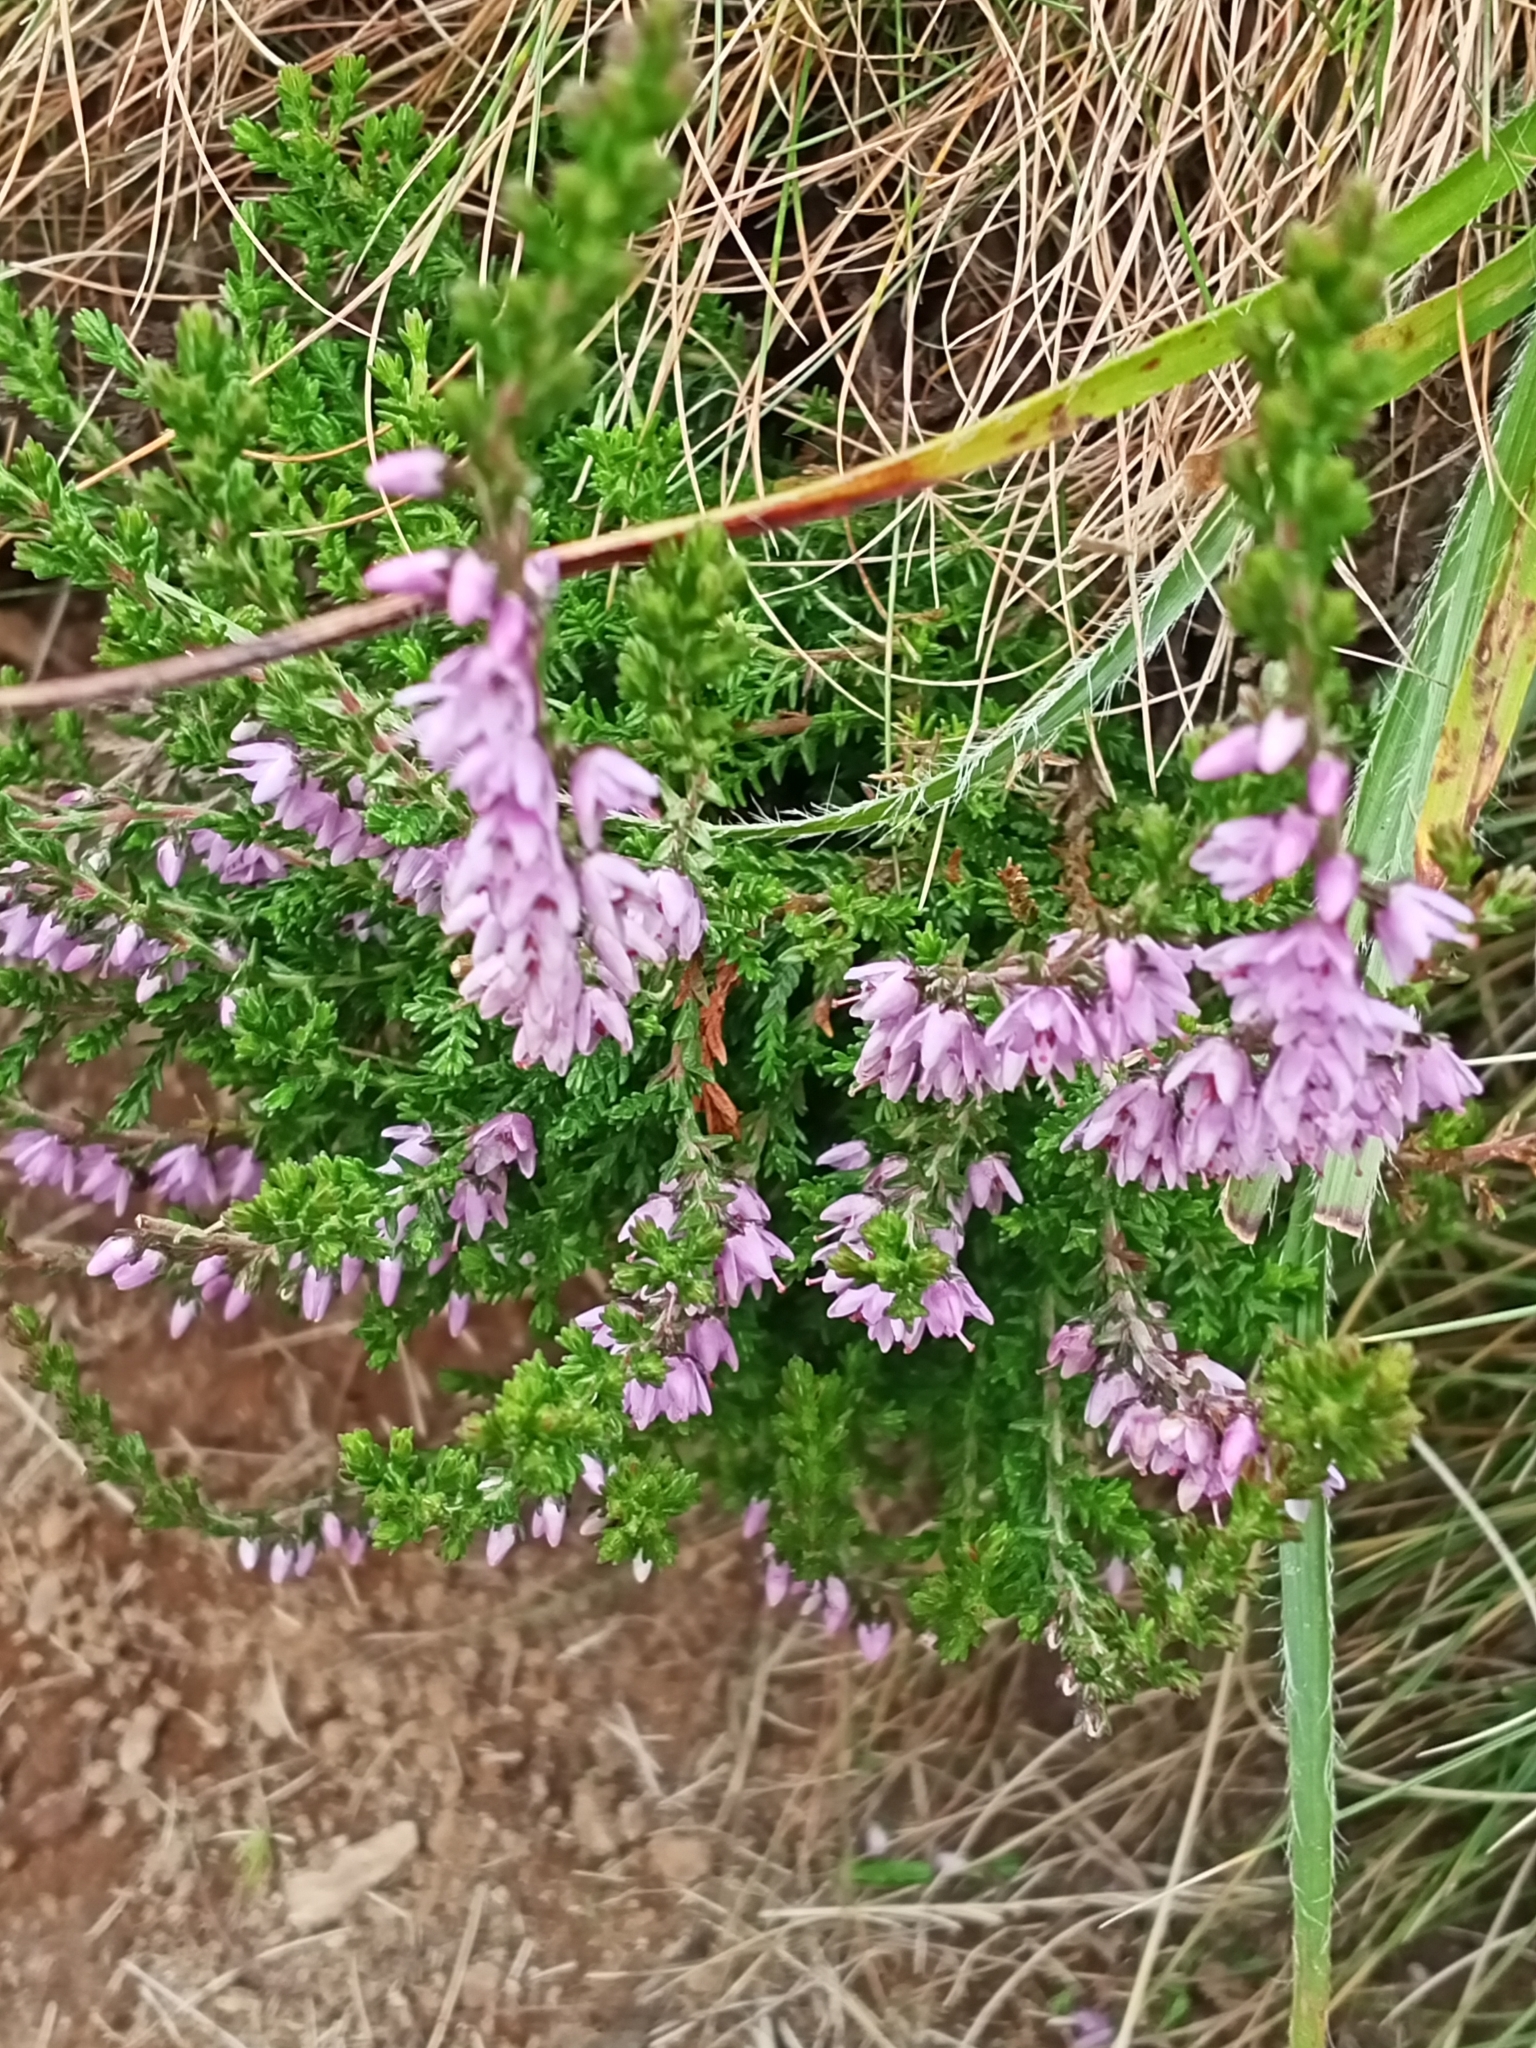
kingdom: Plantae
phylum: Tracheophyta
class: Magnoliopsida
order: Ericales
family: Ericaceae
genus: Calluna
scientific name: Calluna vulgaris
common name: Heather
